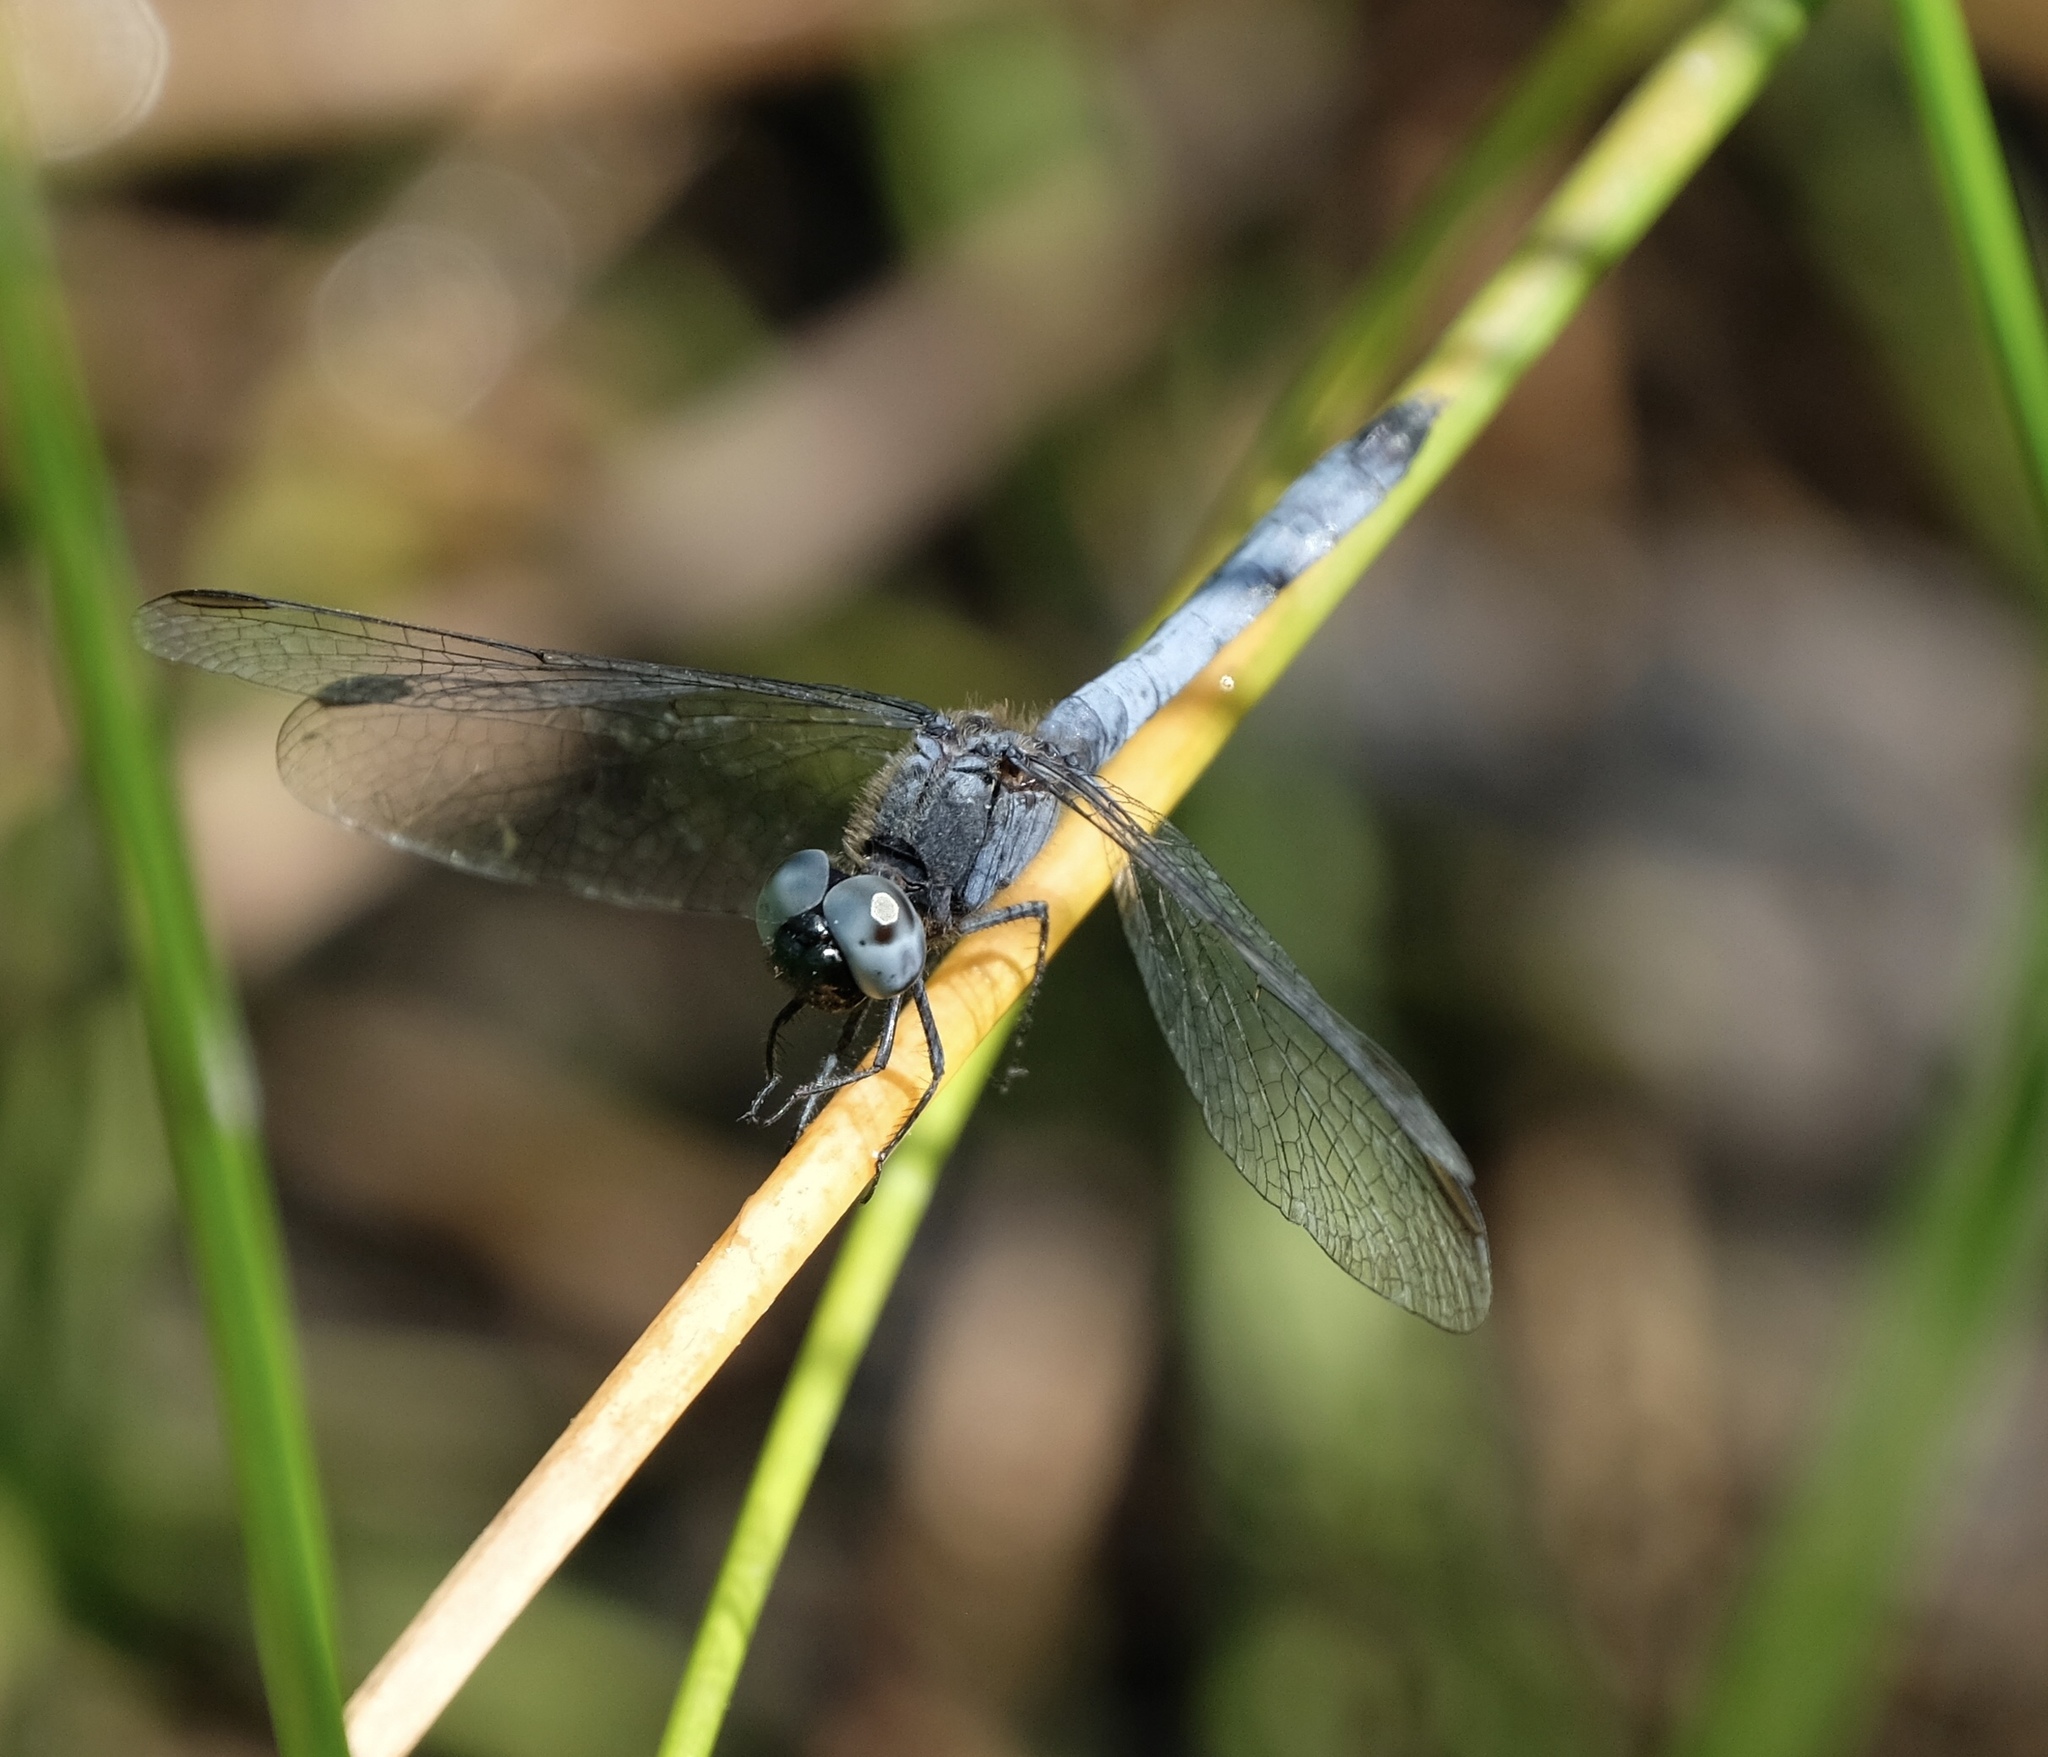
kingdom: Animalia
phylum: Arthropoda
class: Insecta
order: Odonata
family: Libellulidae
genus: Erythrodiplax
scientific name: Erythrodiplax minuscula
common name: Little blue dragonlet
